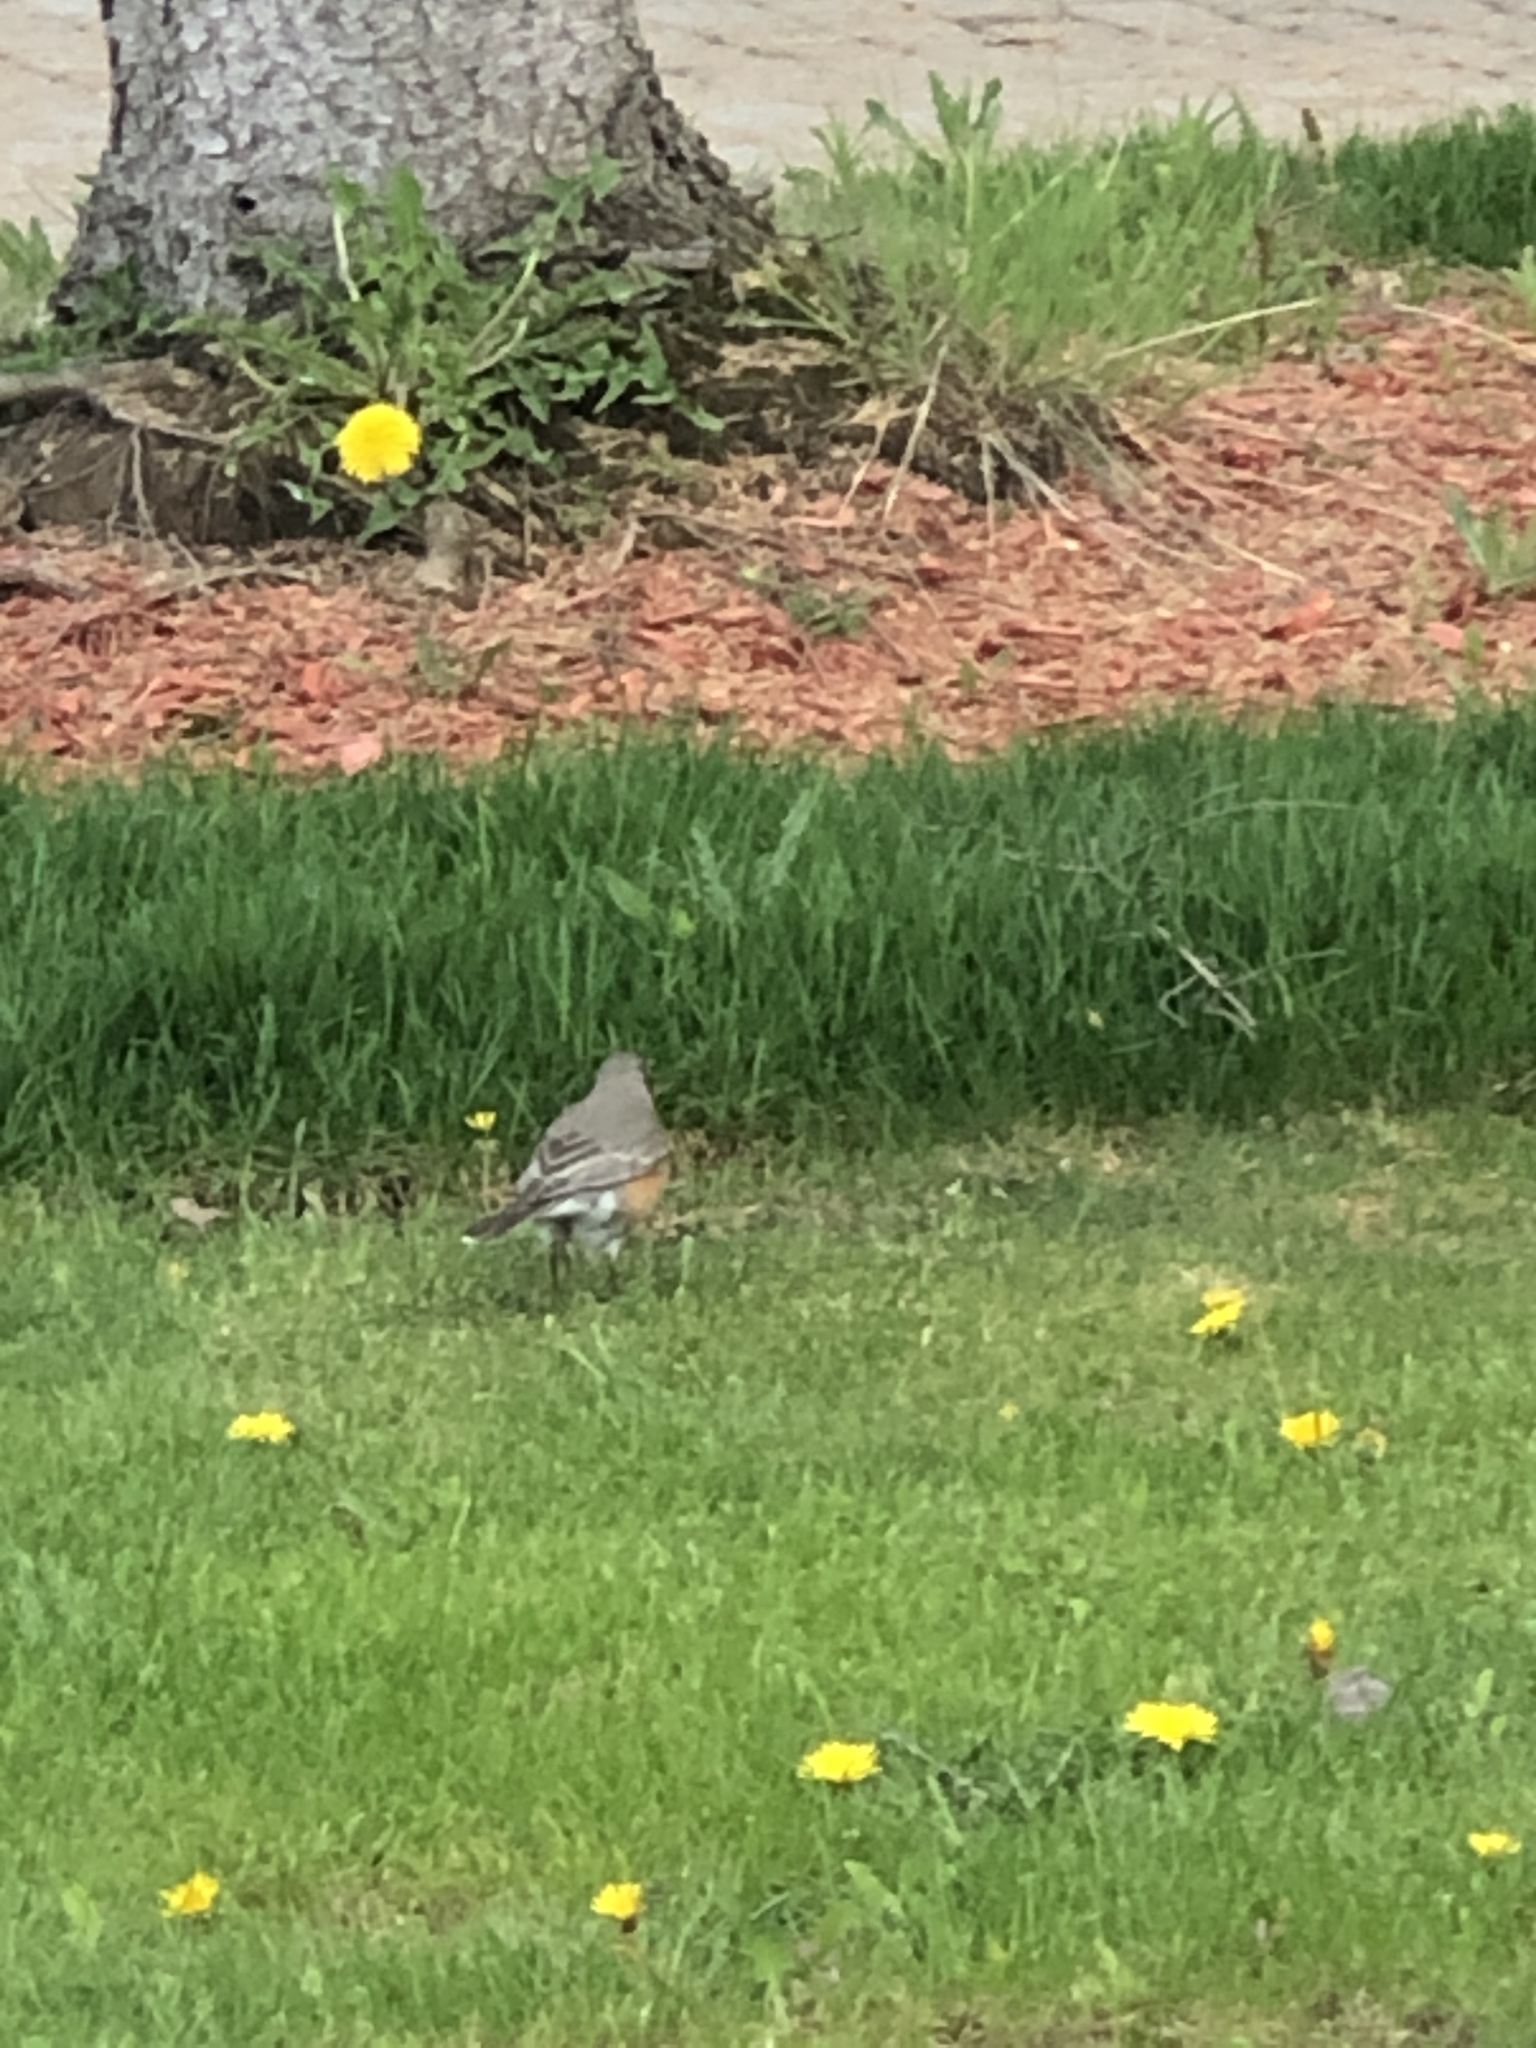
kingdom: Animalia
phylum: Chordata
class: Aves
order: Passeriformes
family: Turdidae
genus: Turdus
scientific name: Turdus migratorius
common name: American robin
